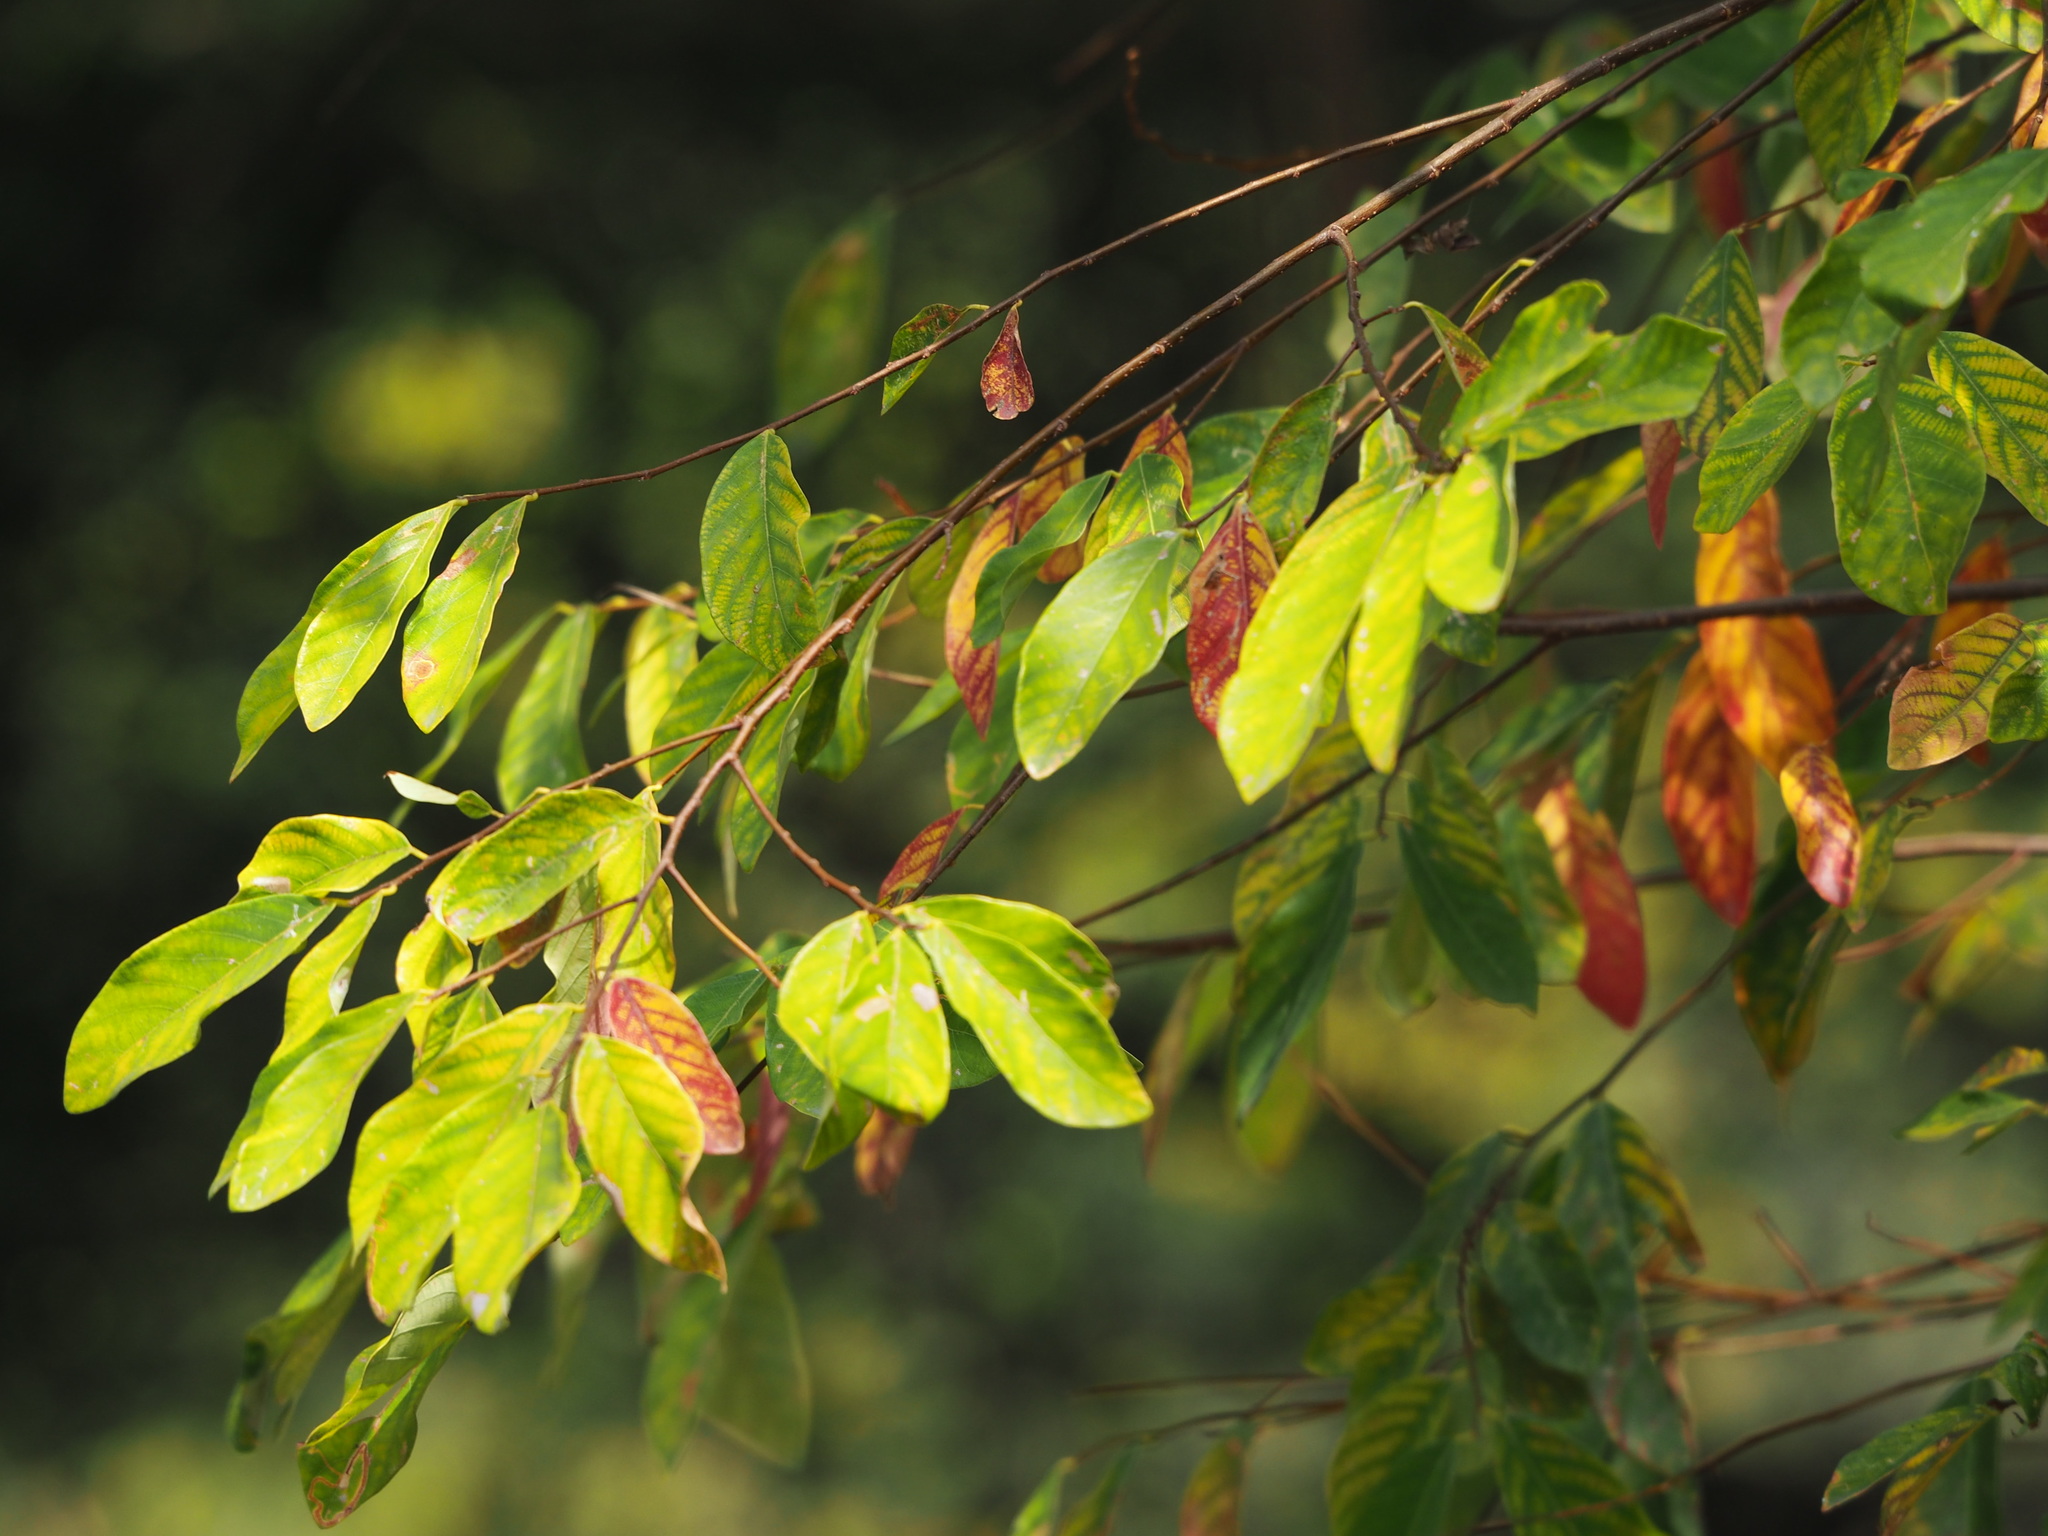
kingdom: Plantae
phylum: Tracheophyta
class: Magnoliopsida
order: Malpighiales
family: Phyllanthaceae
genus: Bridelia
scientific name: Bridelia tomentosa
